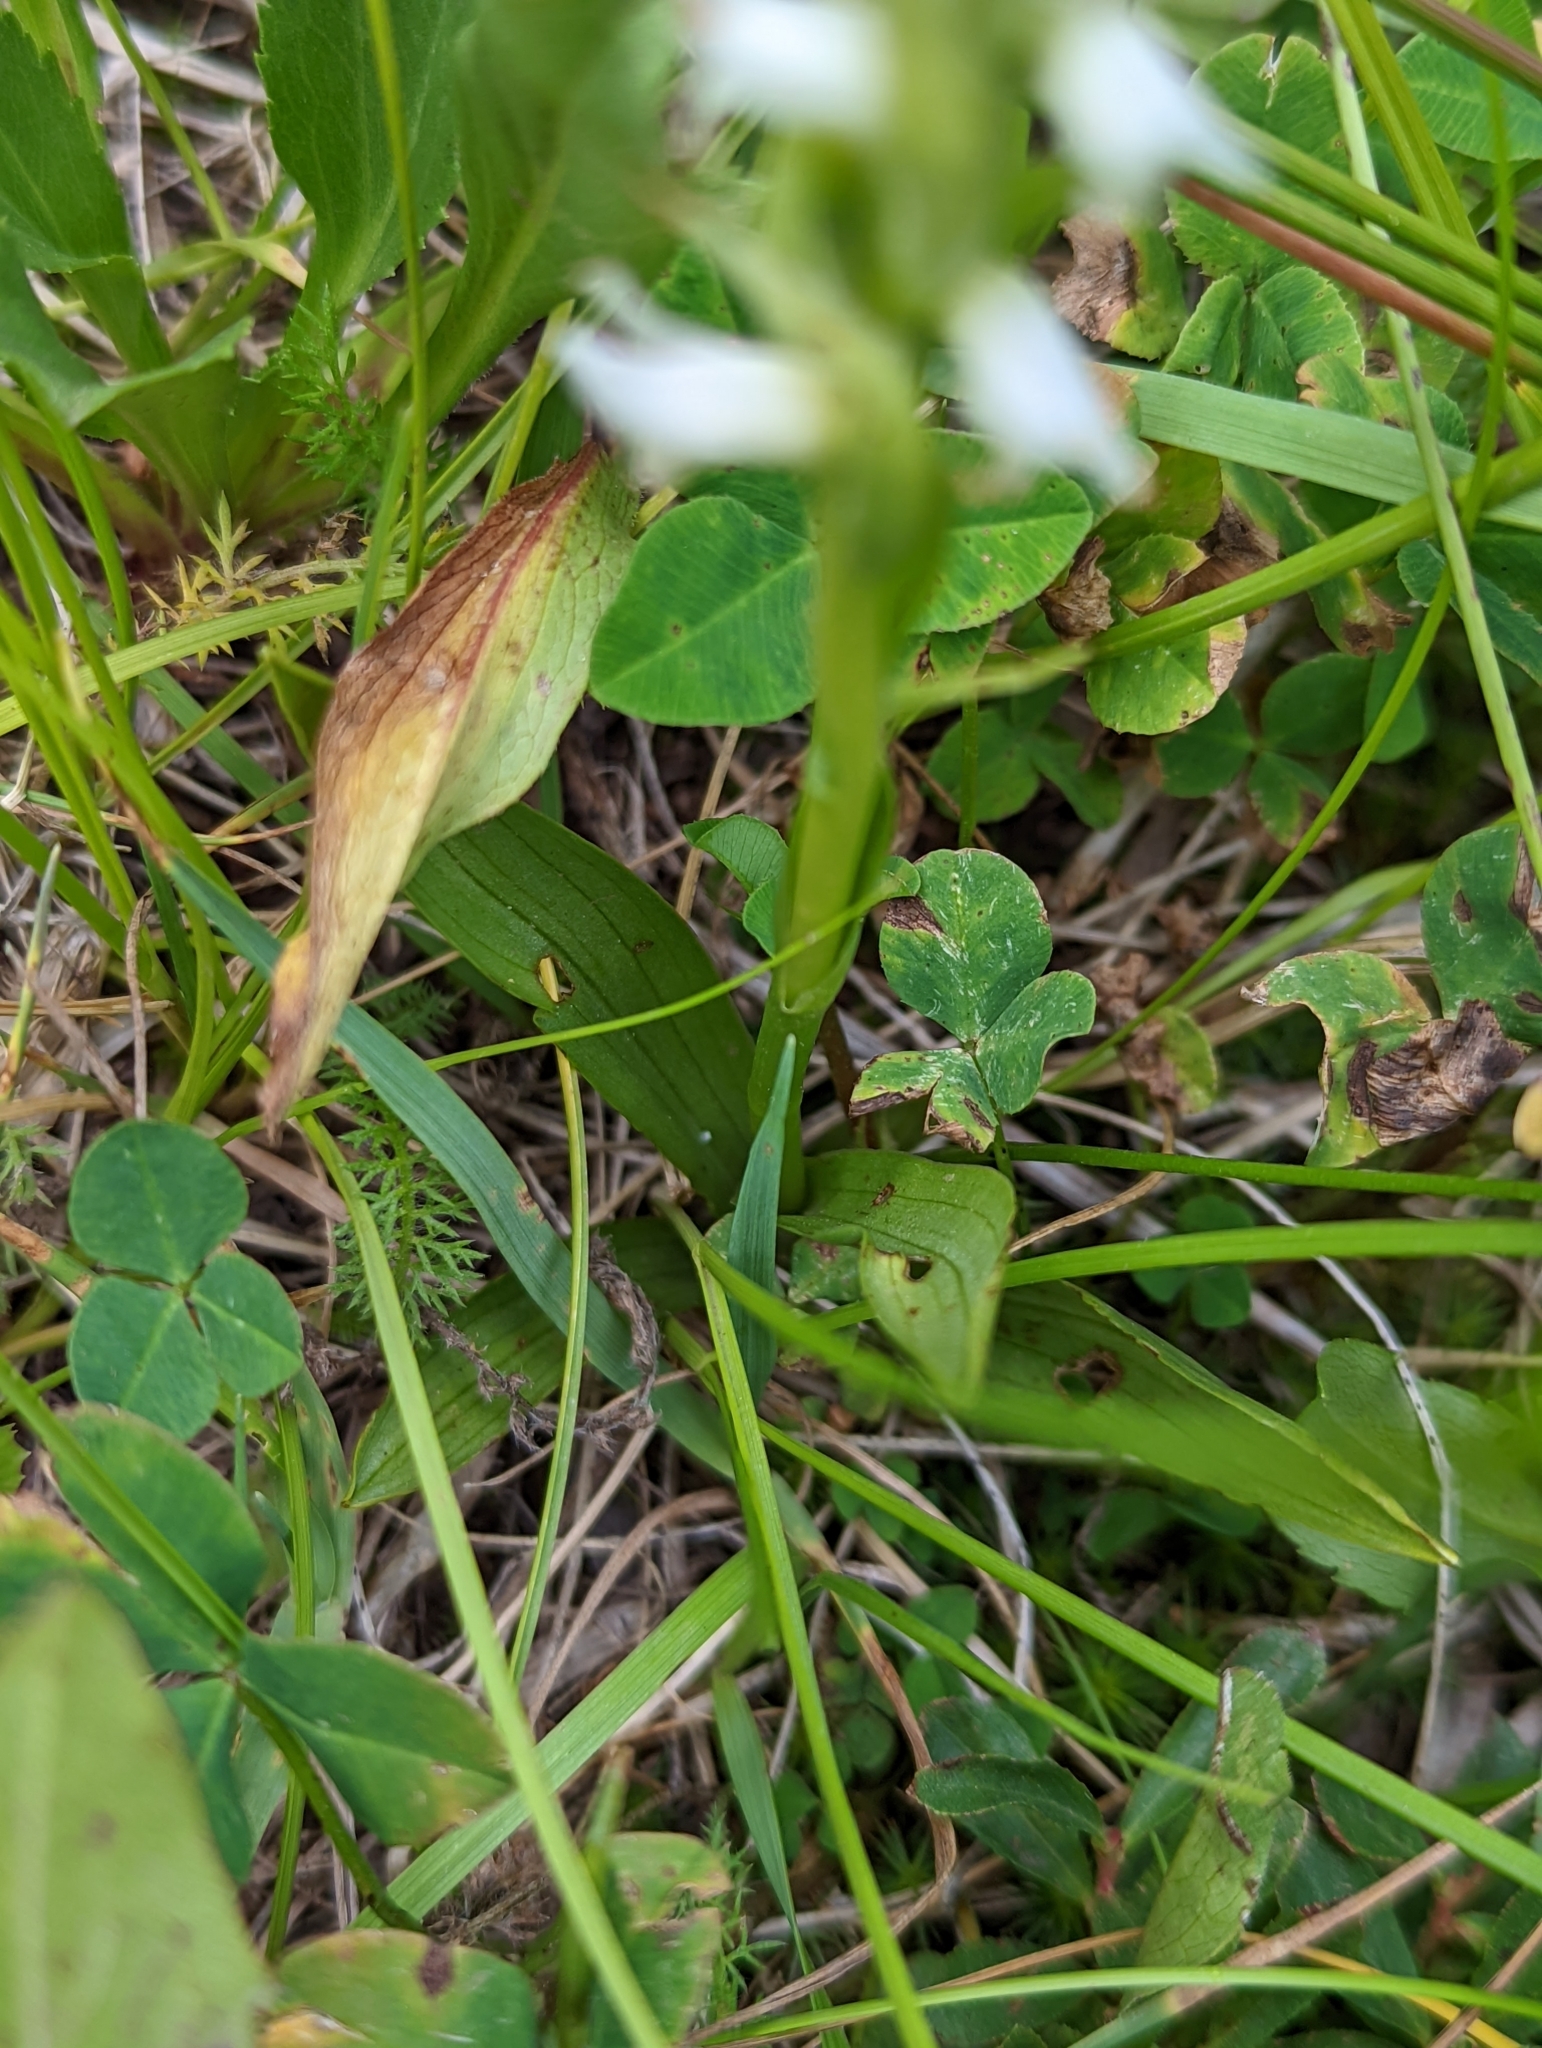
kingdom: Plantae
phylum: Tracheophyta
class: Liliopsida
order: Asparagales
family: Orchidaceae
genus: Spiranthes
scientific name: Spiranthes romanzoffiana
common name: Irish lady's-tresses
